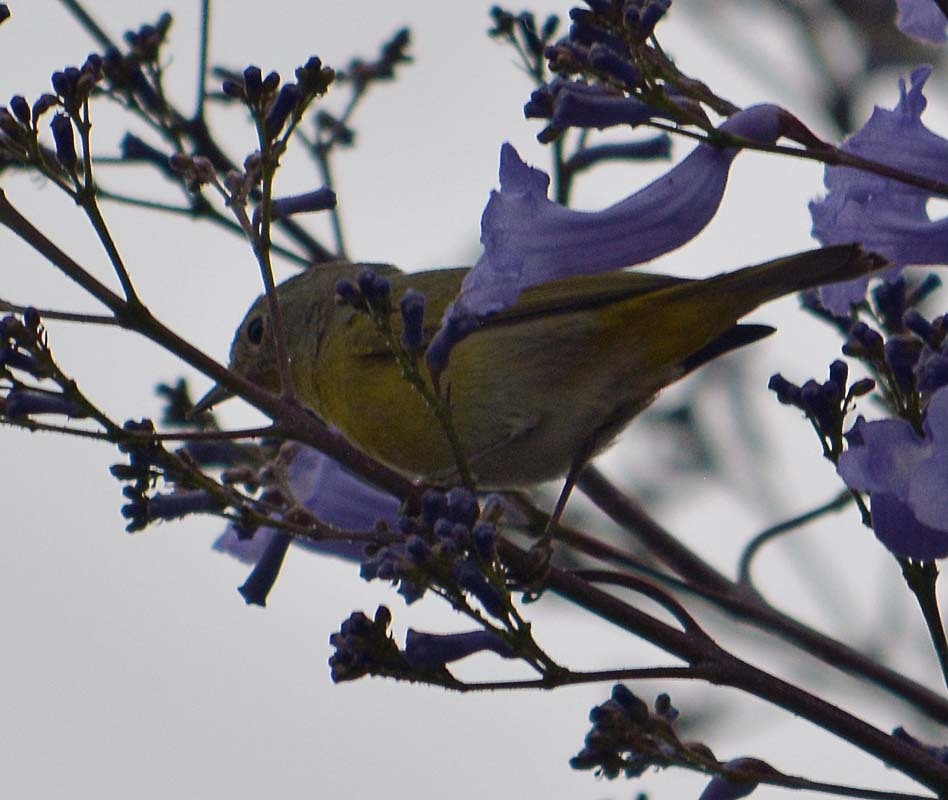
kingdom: Animalia
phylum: Chordata
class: Aves
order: Passeriformes
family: Parulidae
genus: Leiothlypis
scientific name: Leiothlypis ruficapilla
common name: Nashville warbler
